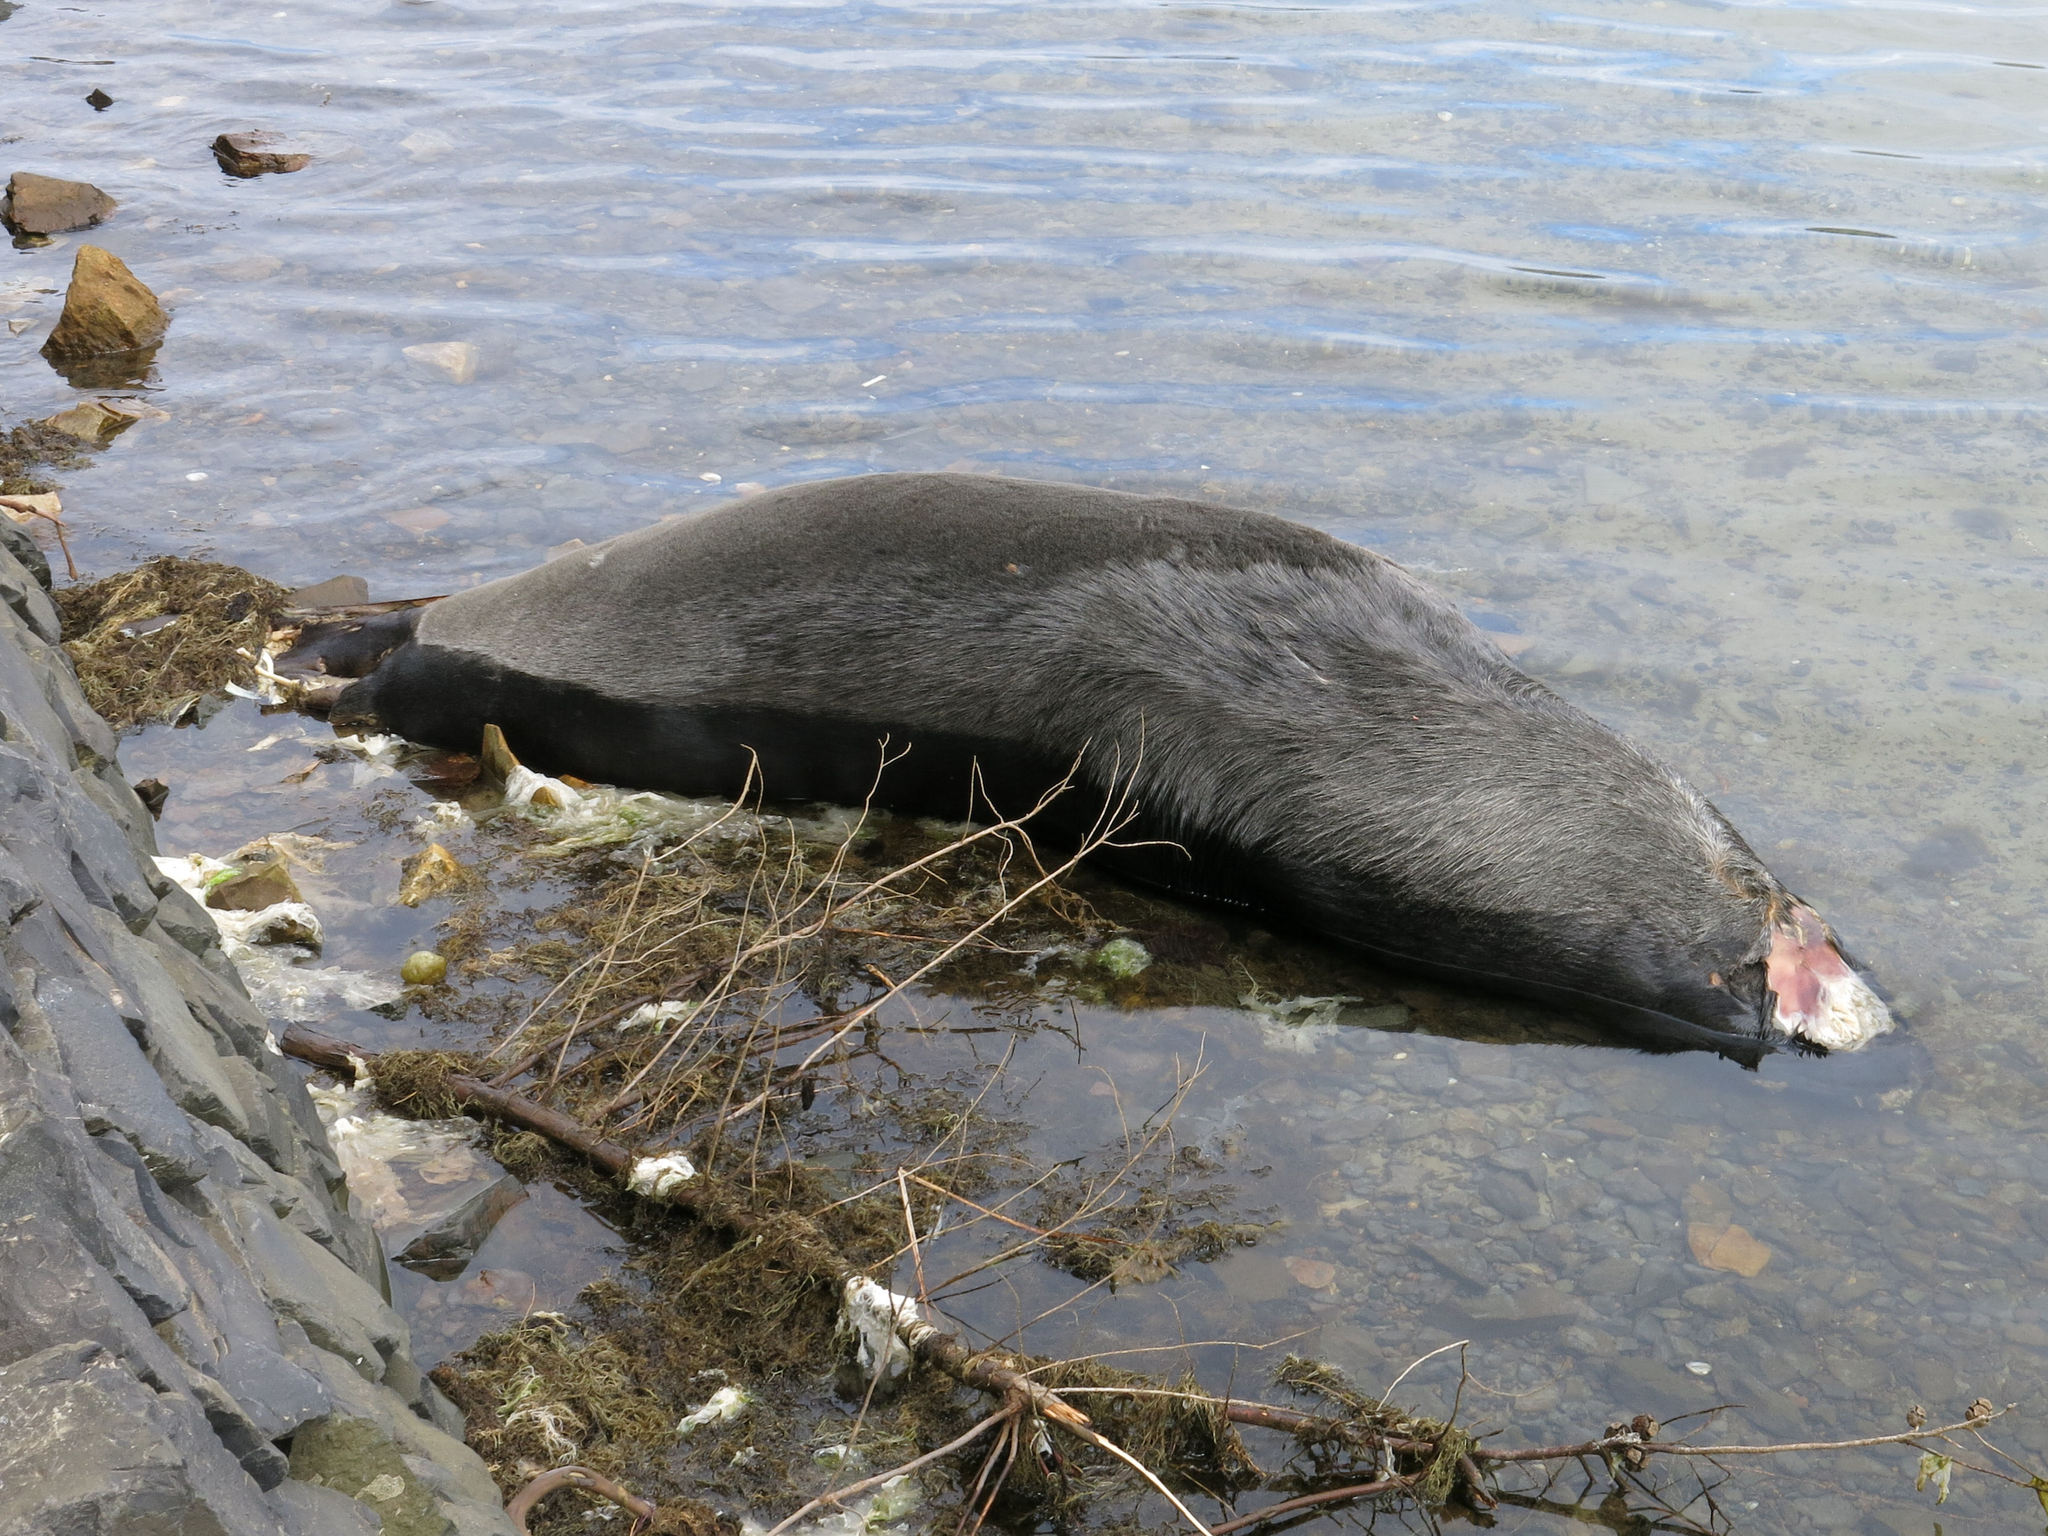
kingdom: Animalia
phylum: Chordata
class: Mammalia
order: Carnivora
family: Otariidae
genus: Arctocephalus
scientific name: Arctocephalus forsteri
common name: New zealand fur seal
